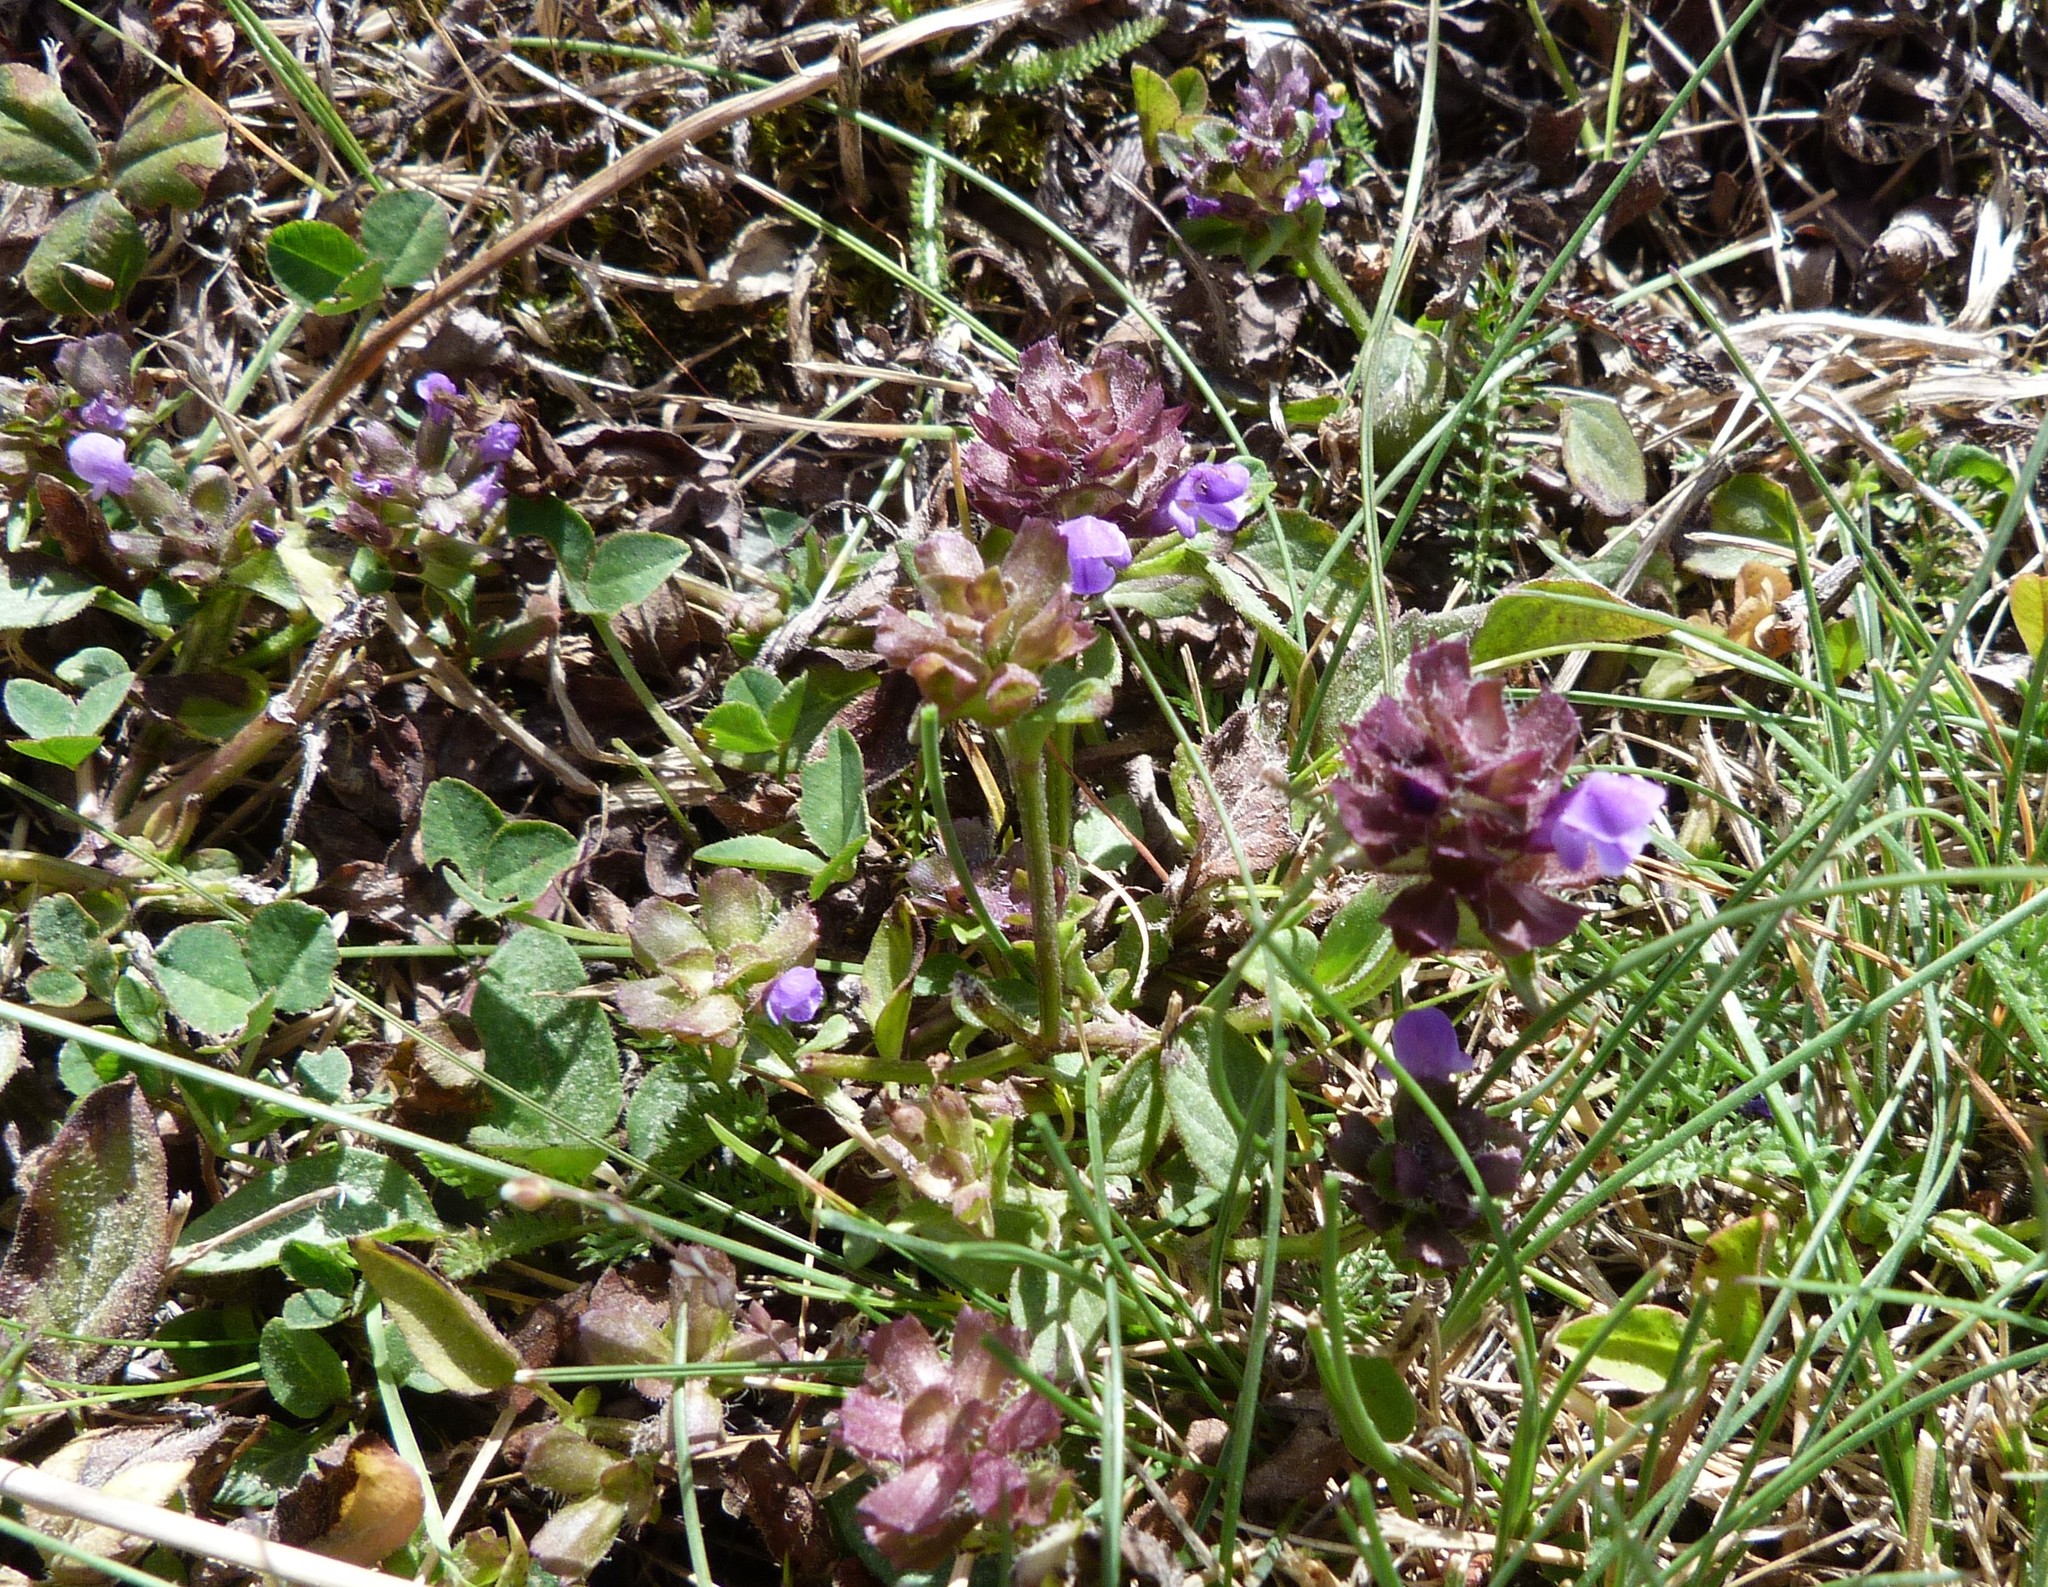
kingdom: Plantae
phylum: Tracheophyta
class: Magnoliopsida
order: Lamiales
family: Lamiaceae
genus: Prunella
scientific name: Prunella vulgaris
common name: Heal-all
